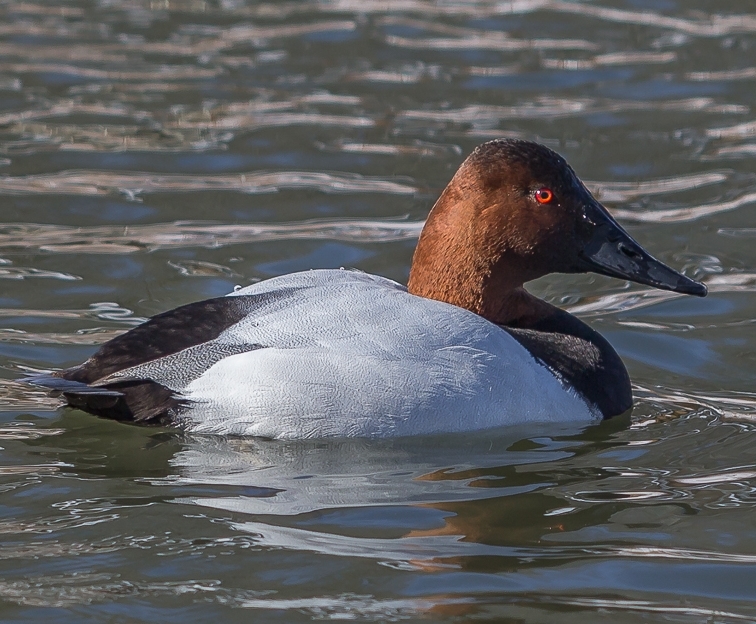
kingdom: Animalia
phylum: Chordata
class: Aves
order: Anseriformes
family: Anatidae
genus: Aythya
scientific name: Aythya valisineria
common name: Canvasback
